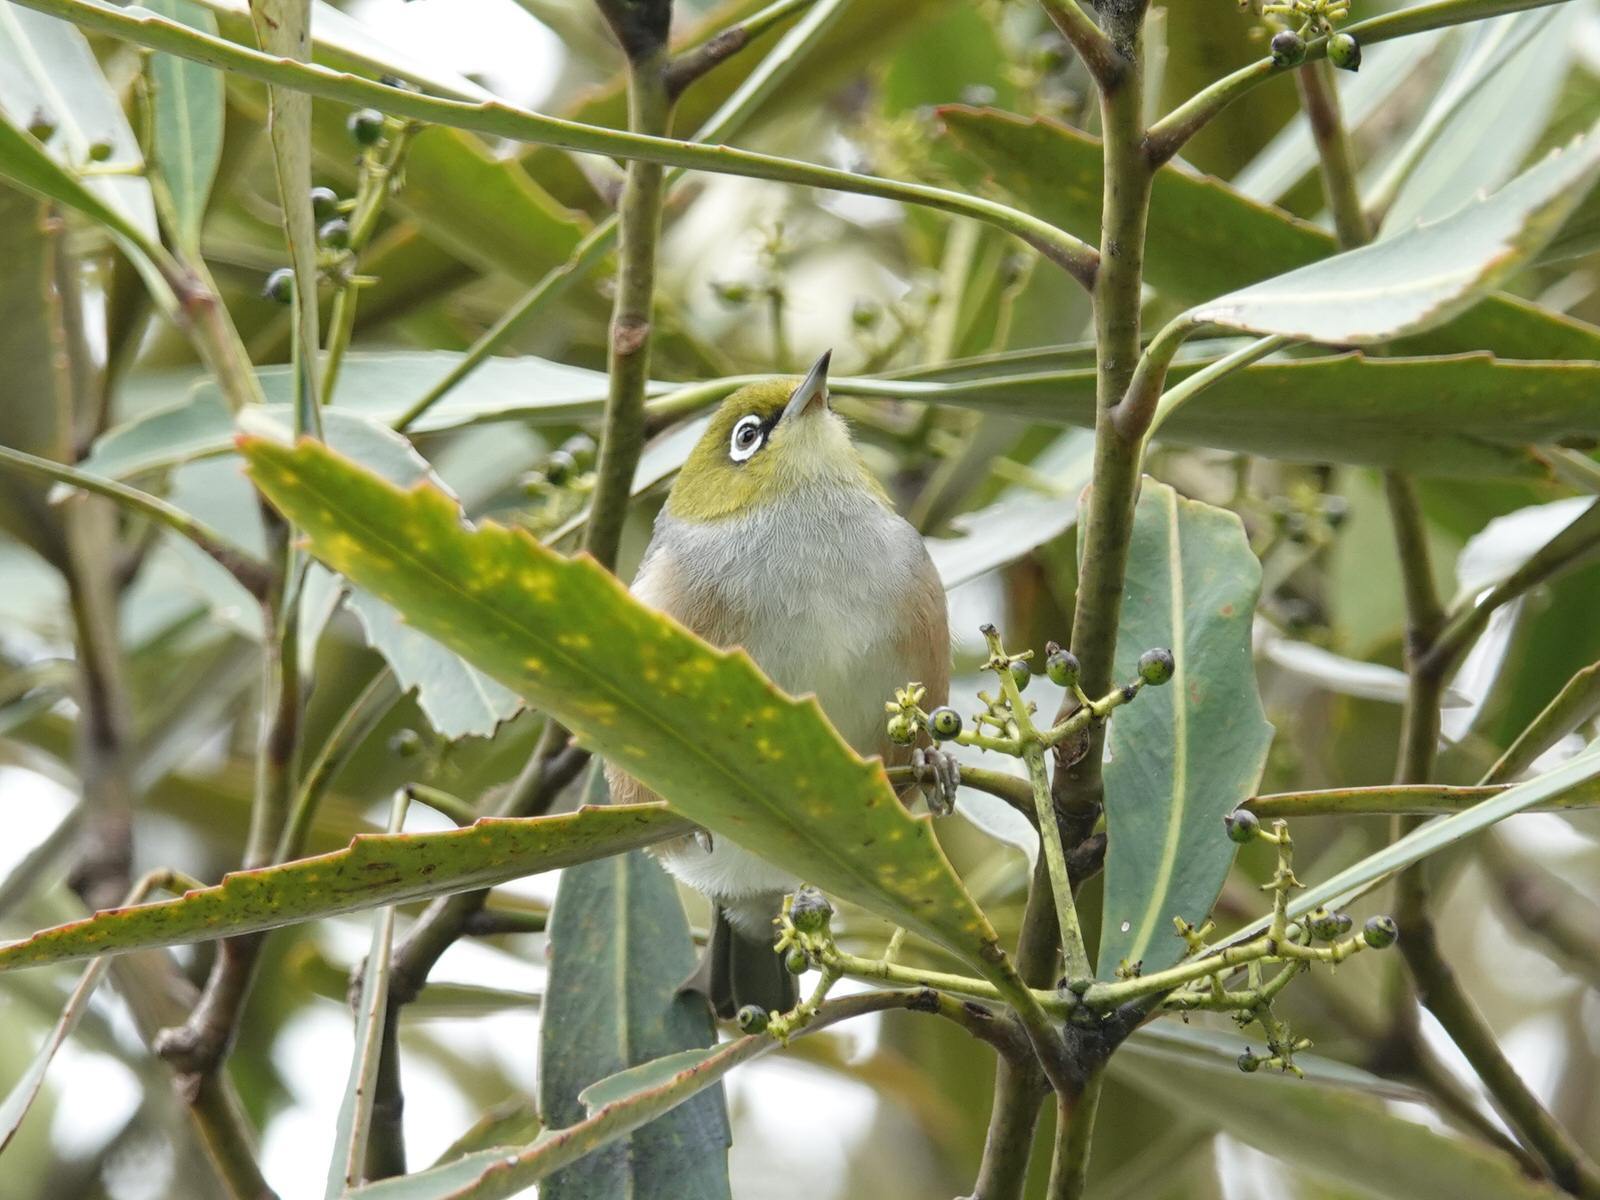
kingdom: Animalia
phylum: Chordata
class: Aves
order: Passeriformes
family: Zosteropidae
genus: Zosterops
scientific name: Zosterops lateralis
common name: Silvereye
